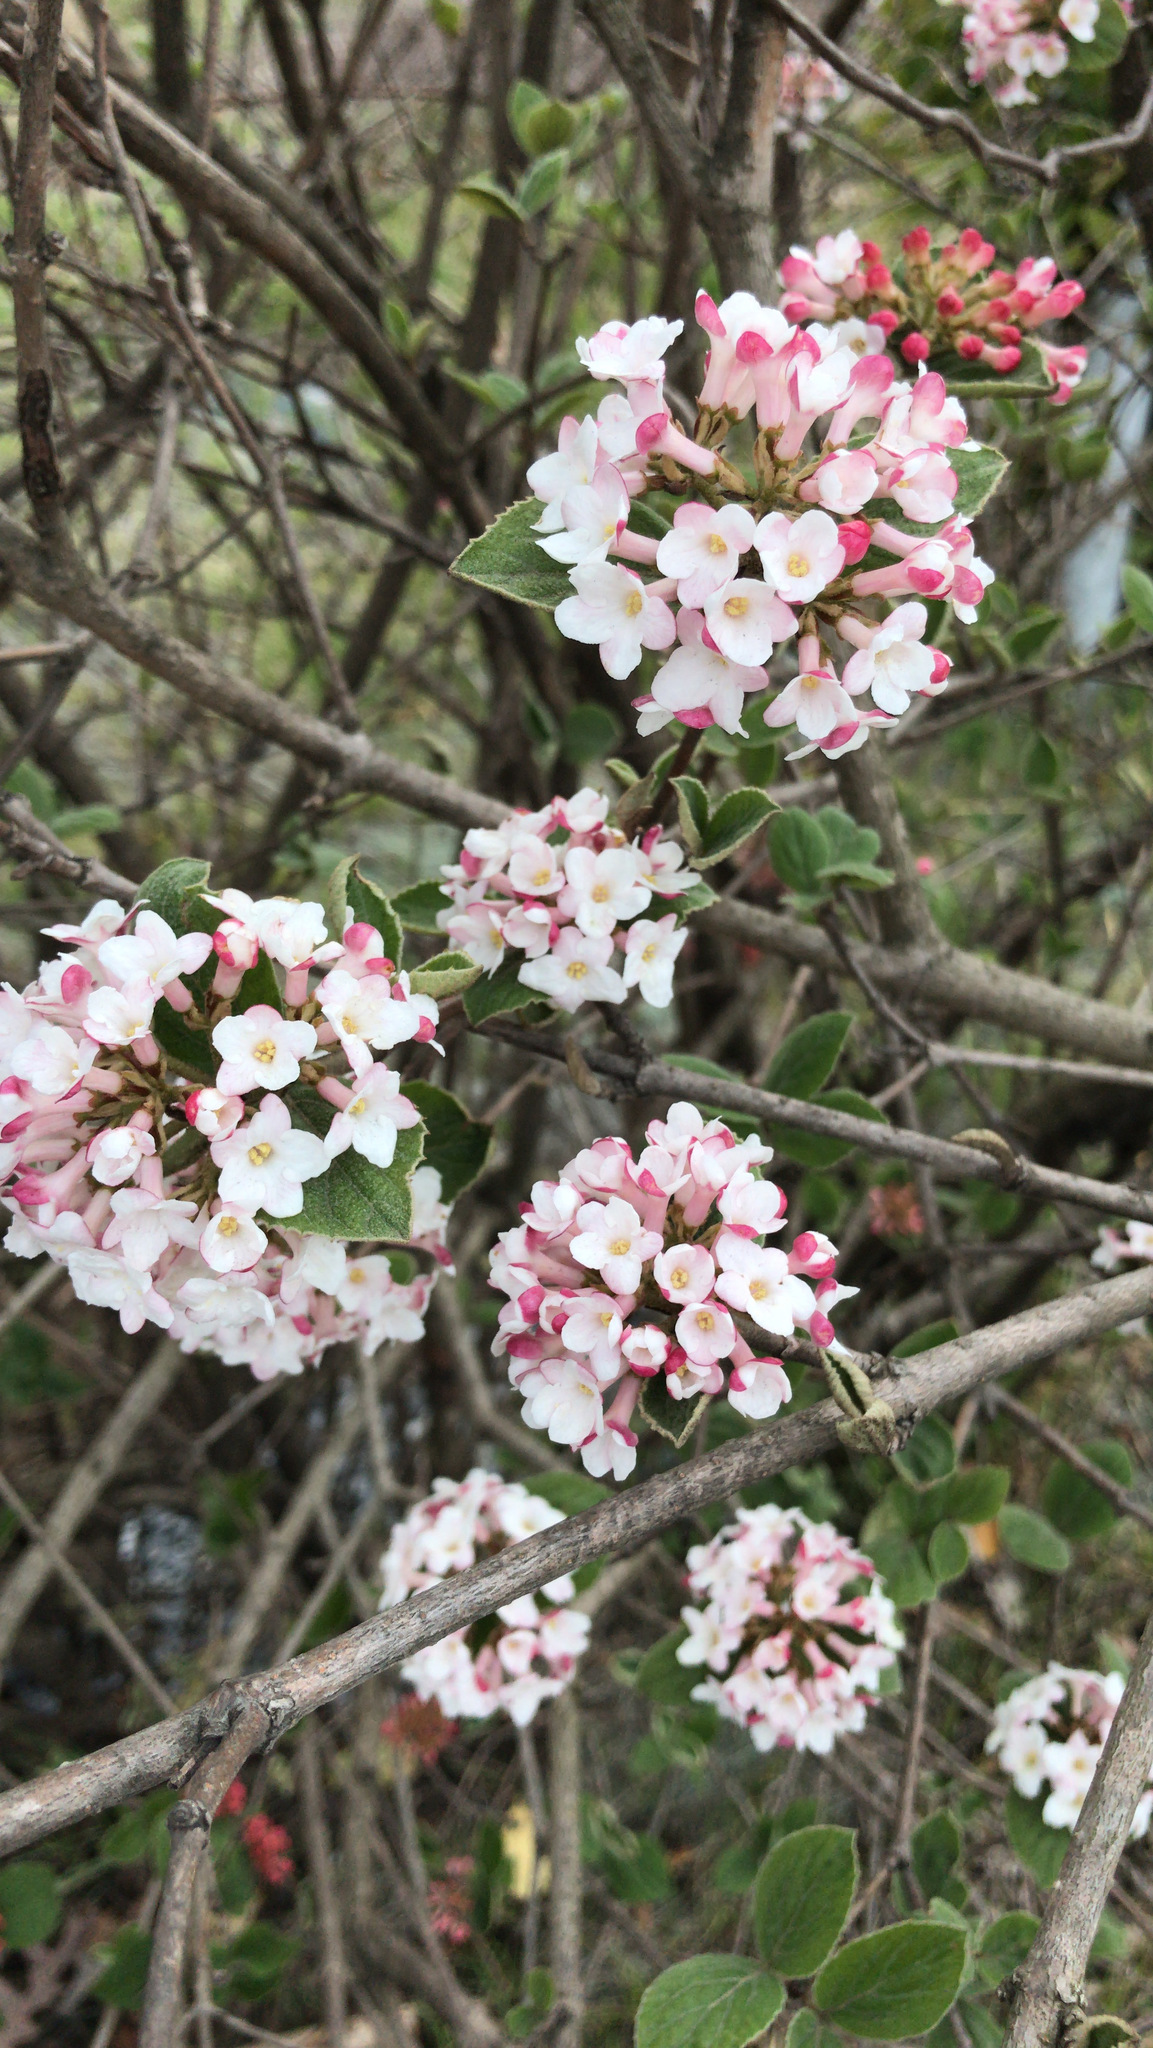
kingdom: Plantae
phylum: Tracheophyta
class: Magnoliopsida
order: Dipsacales
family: Viburnaceae
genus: Viburnum
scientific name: Viburnum carlesii
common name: Koreanspice viburnum
